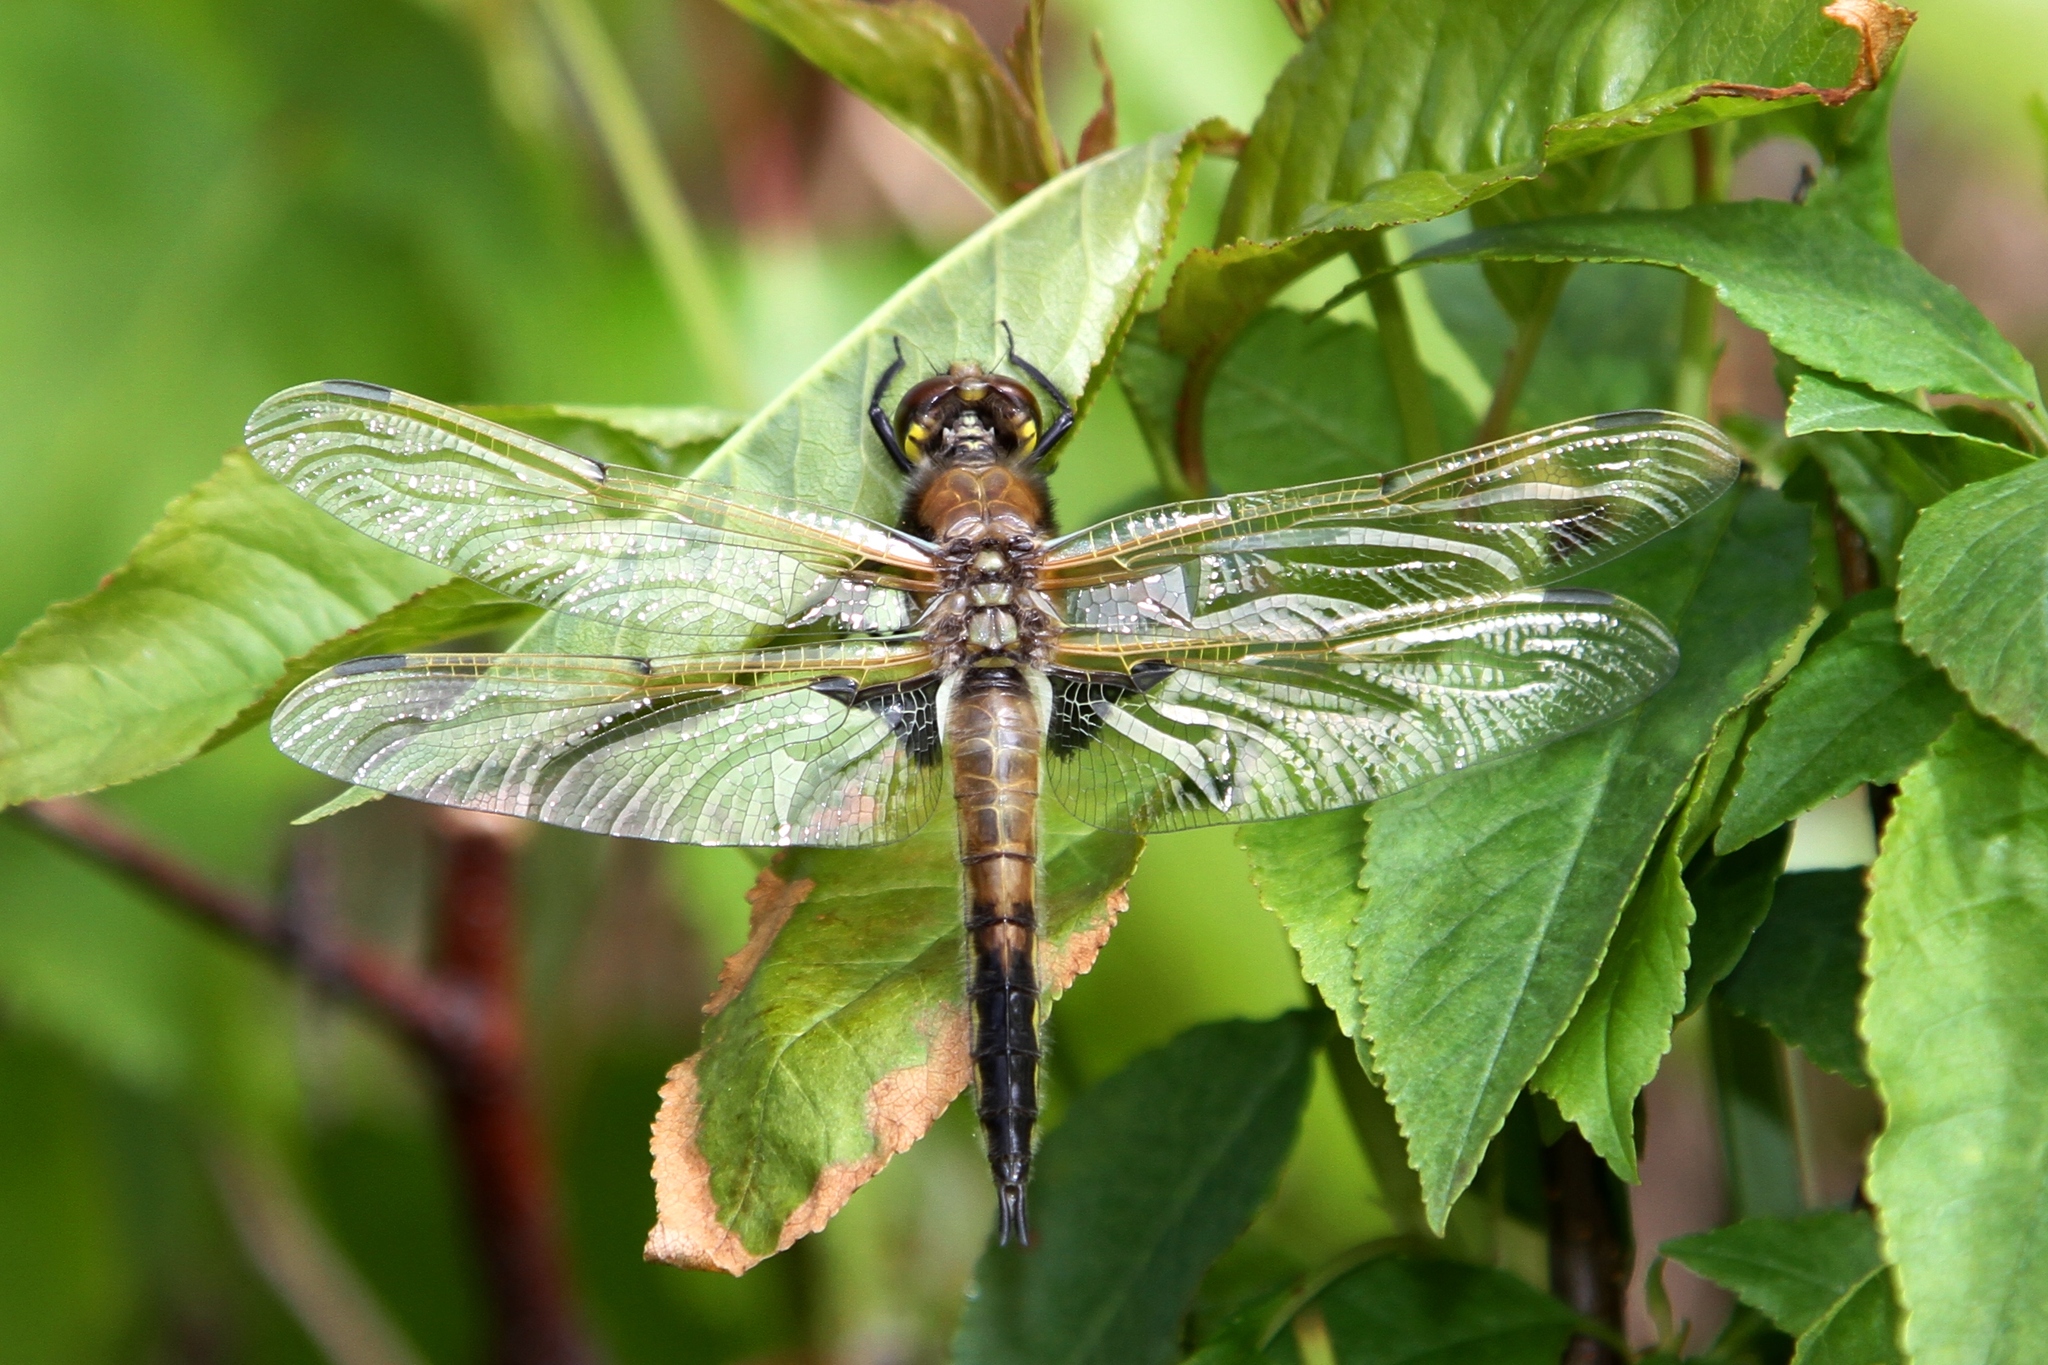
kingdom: Animalia
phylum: Arthropoda
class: Insecta
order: Odonata
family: Libellulidae
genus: Libellula
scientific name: Libellula quadrimaculata
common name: Four-spotted chaser
